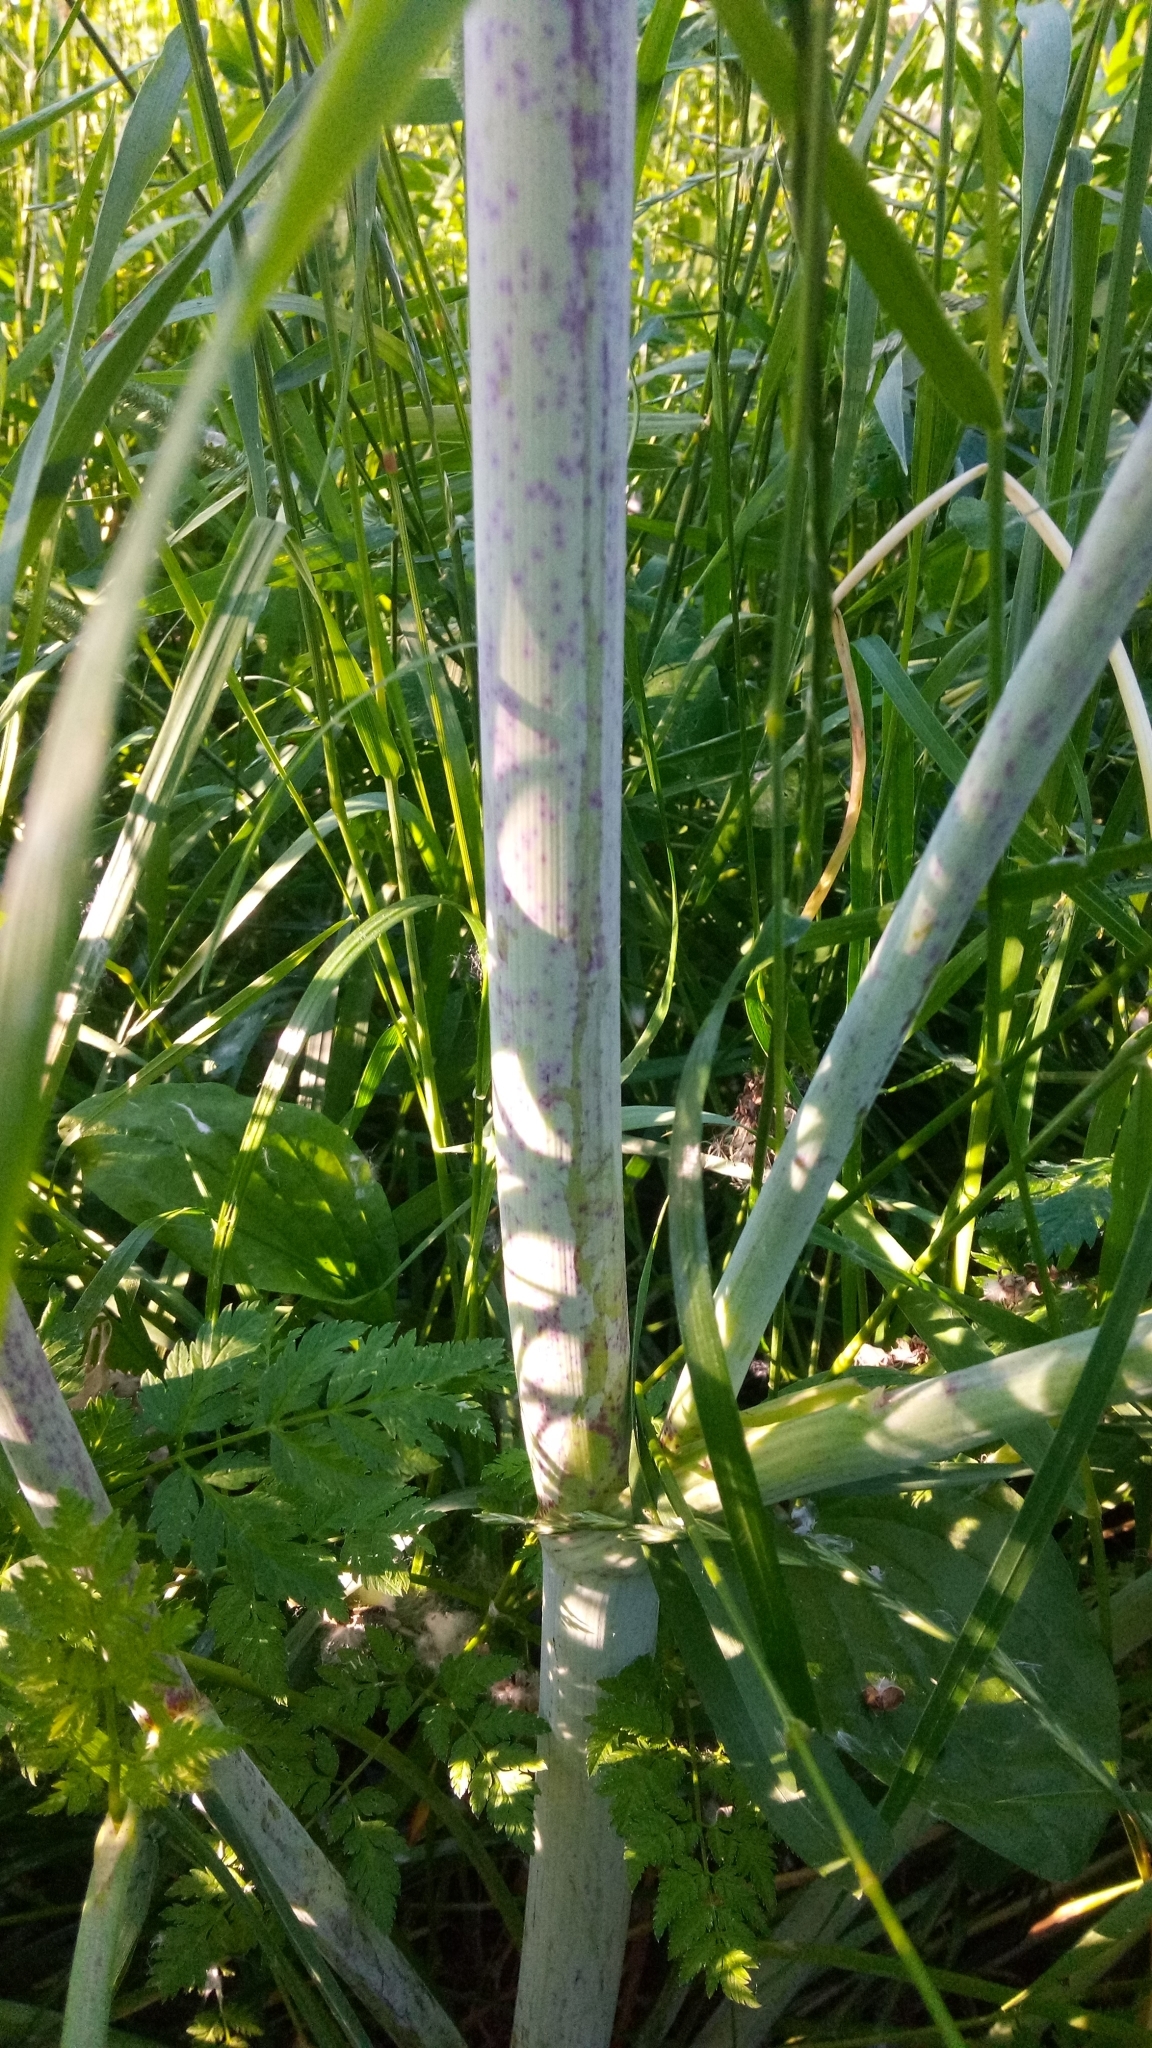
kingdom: Plantae
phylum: Tracheophyta
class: Magnoliopsida
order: Apiales
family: Apiaceae
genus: Conium
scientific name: Conium maculatum
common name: Hemlock
